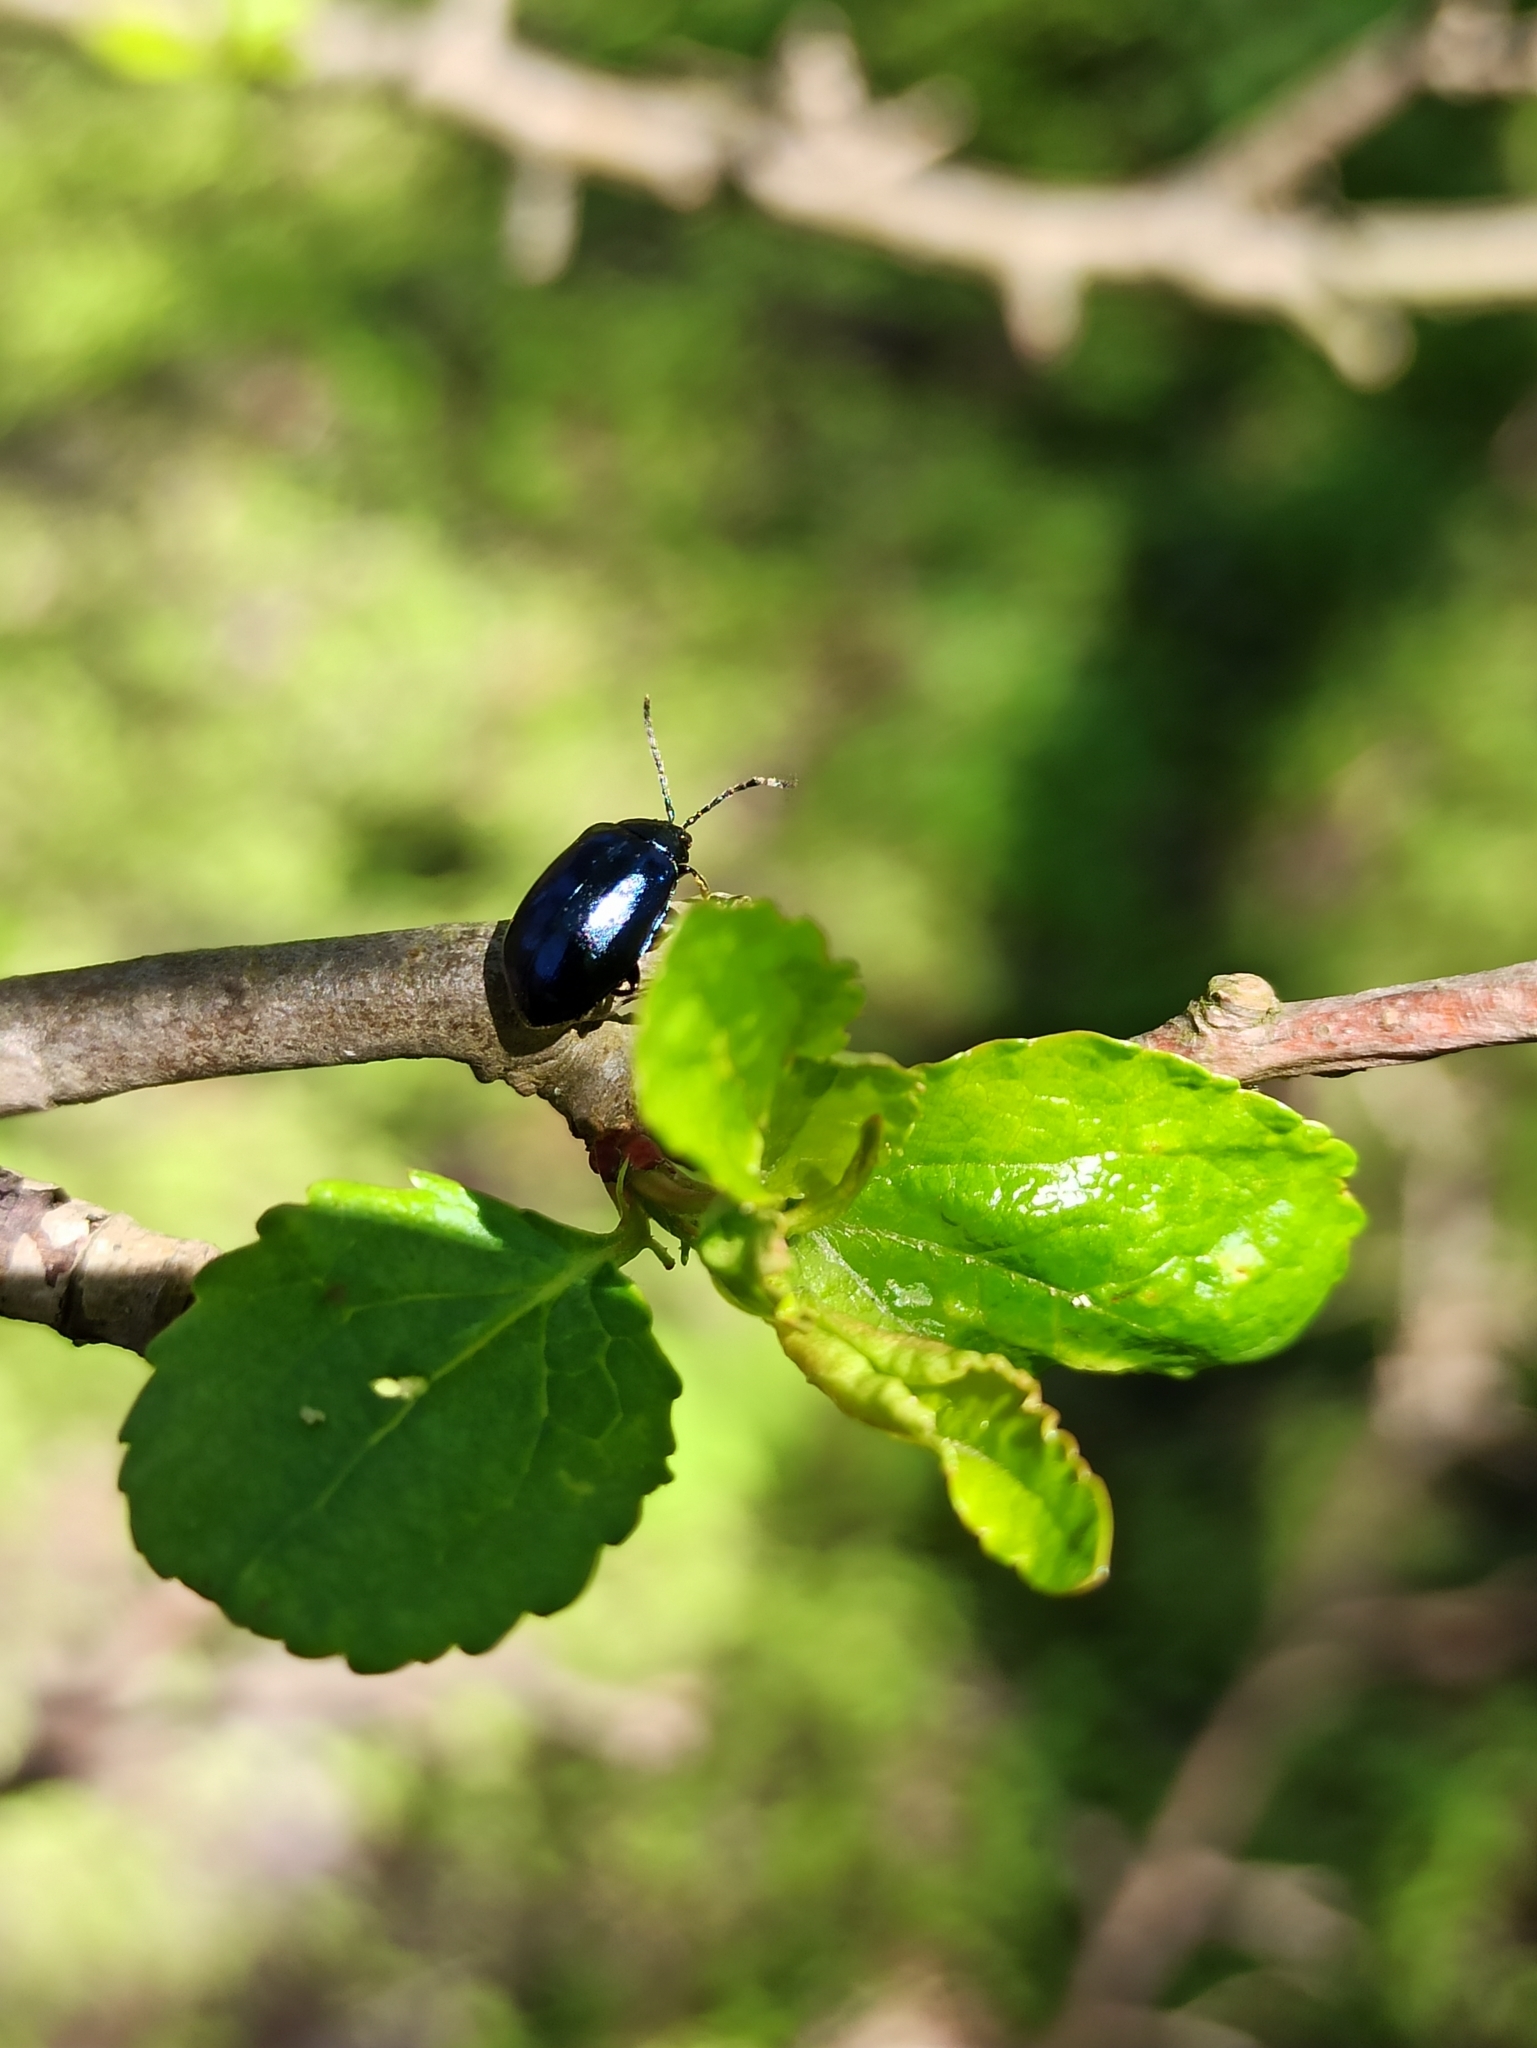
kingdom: Animalia
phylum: Arthropoda
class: Insecta
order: Coleoptera
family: Chrysomelidae
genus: Agelastica
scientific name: Agelastica alni
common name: Alder leaf beetle
